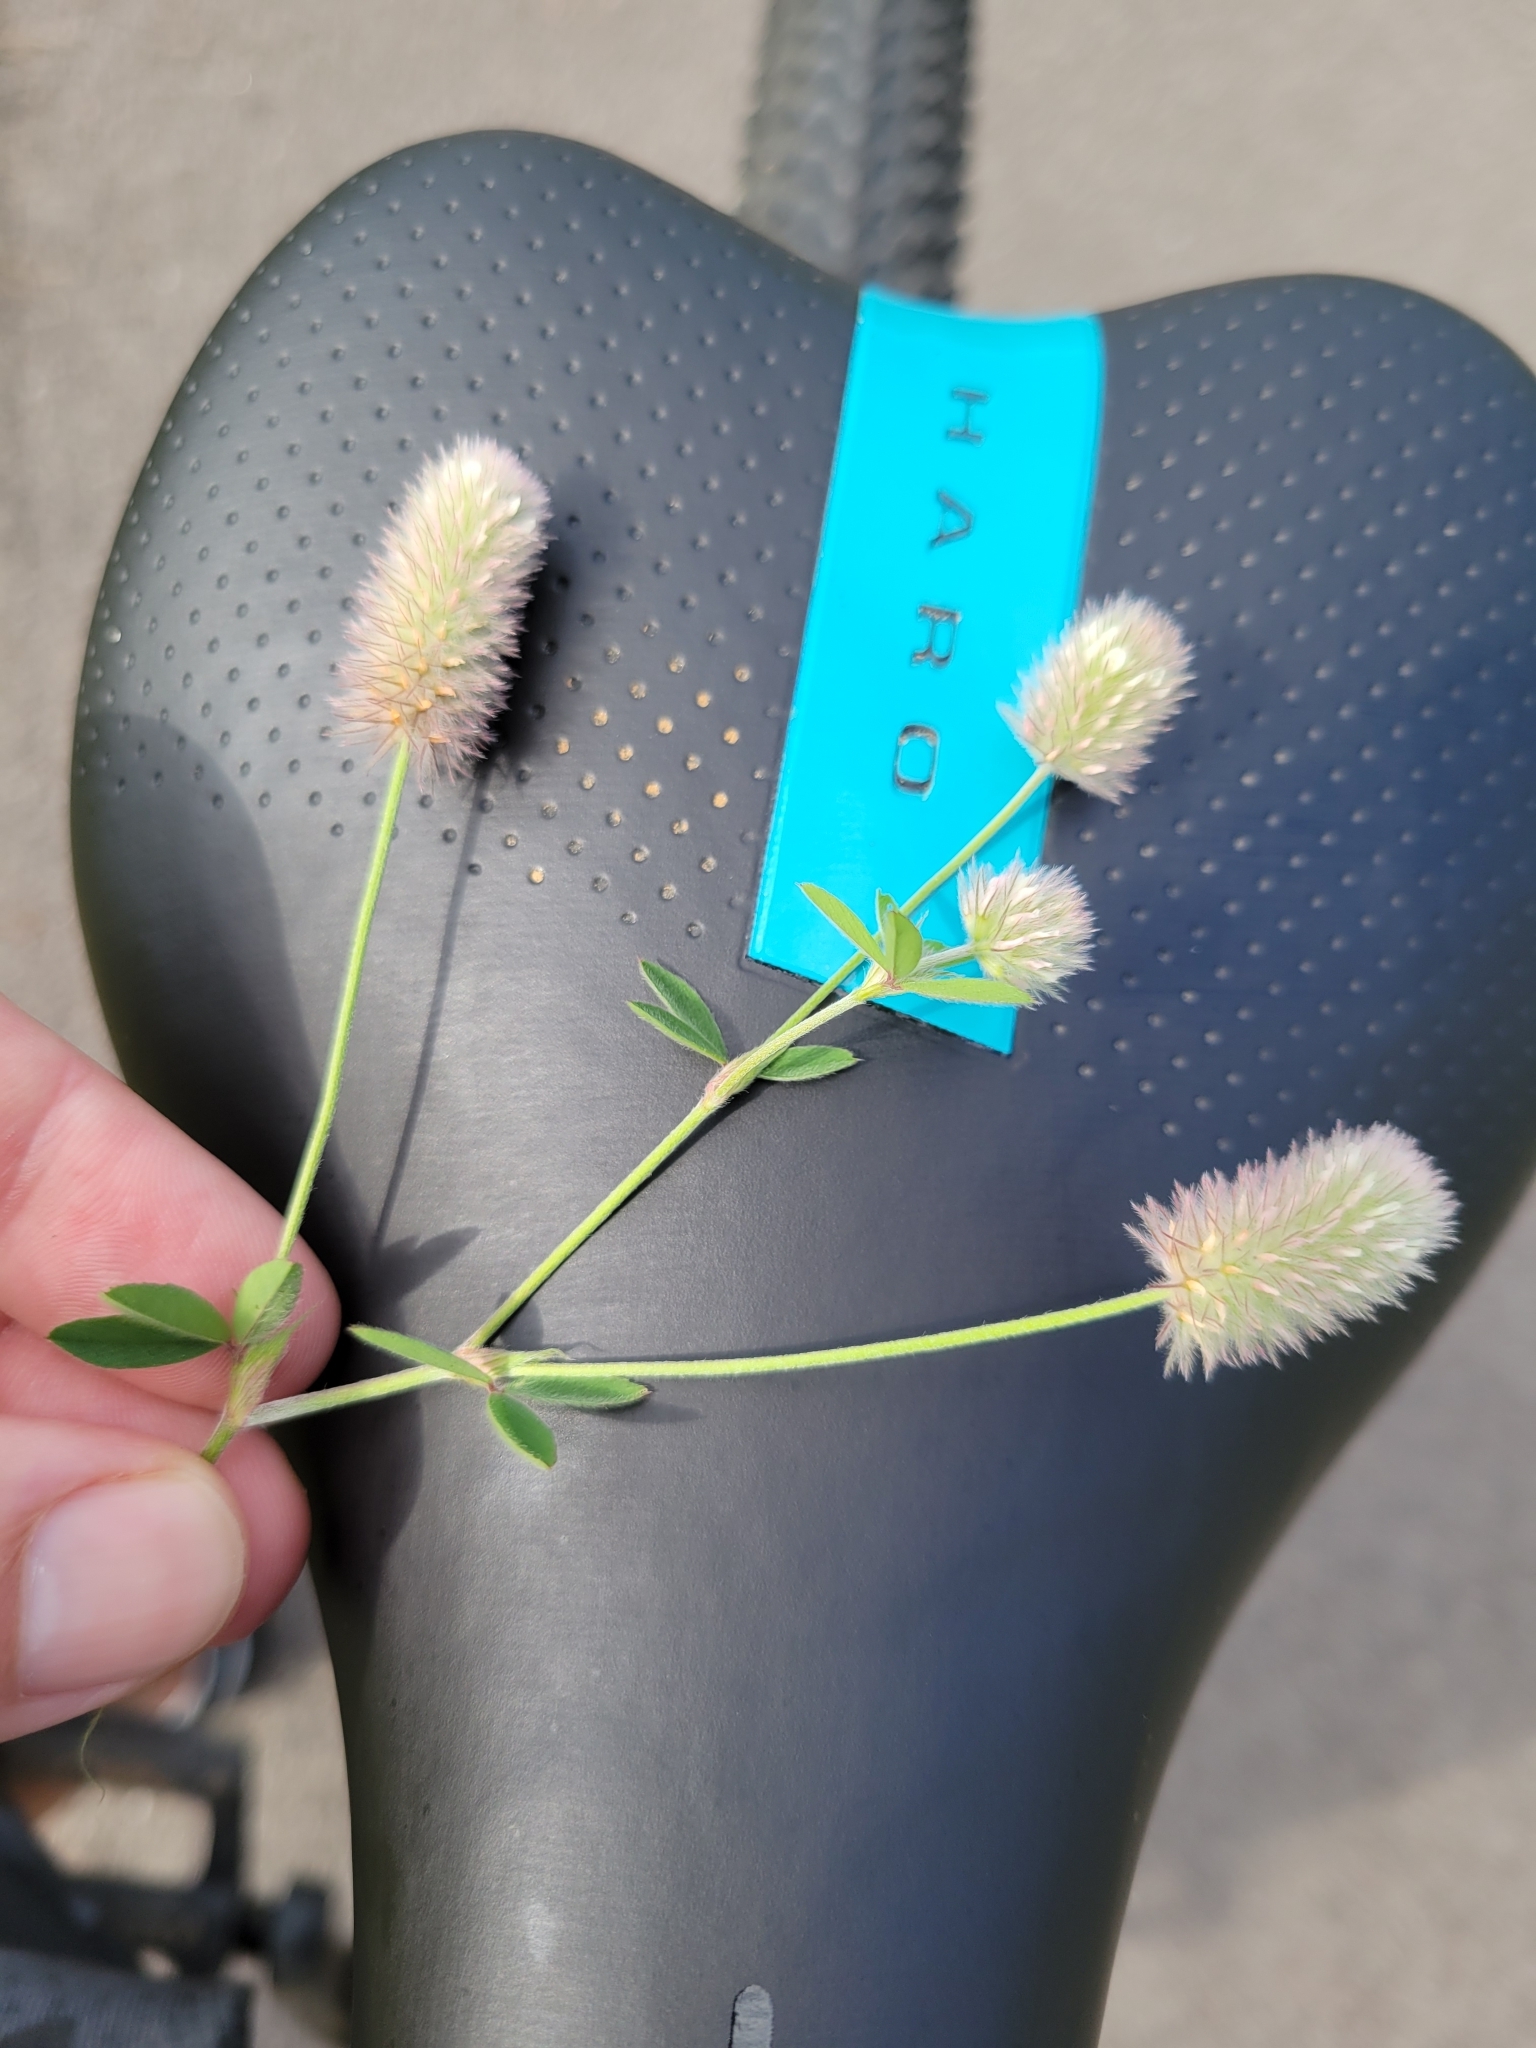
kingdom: Plantae
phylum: Tracheophyta
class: Magnoliopsida
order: Fabales
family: Fabaceae
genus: Trifolium
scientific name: Trifolium arvense
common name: Hare's-foot clover
